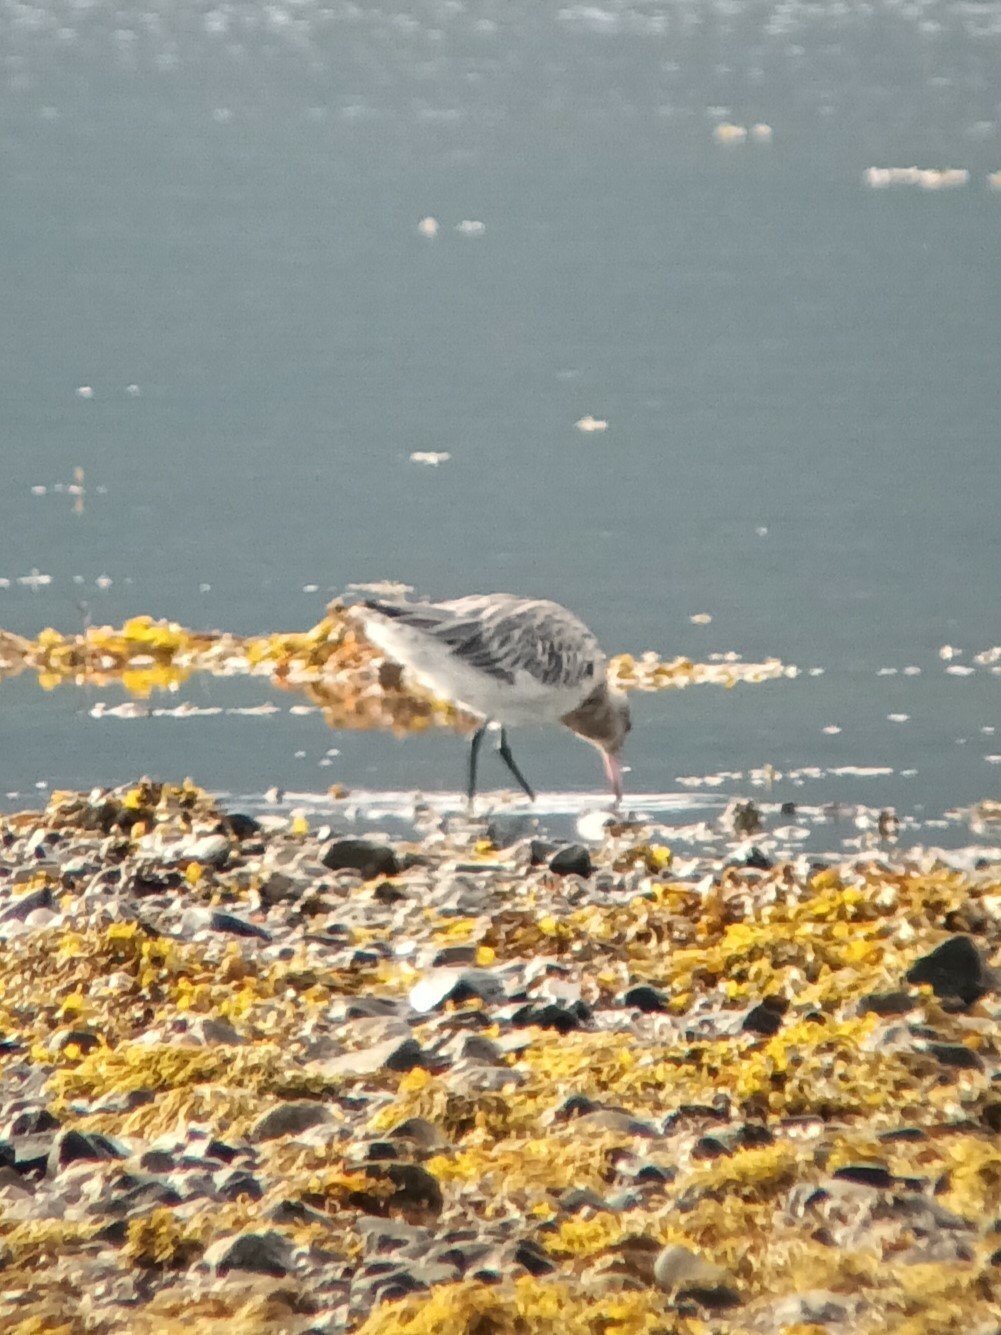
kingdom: Animalia
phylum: Chordata
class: Aves
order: Charadriiformes
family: Scolopacidae
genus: Limosa
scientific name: Limosa lapponica
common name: Bar-tailed godwit
